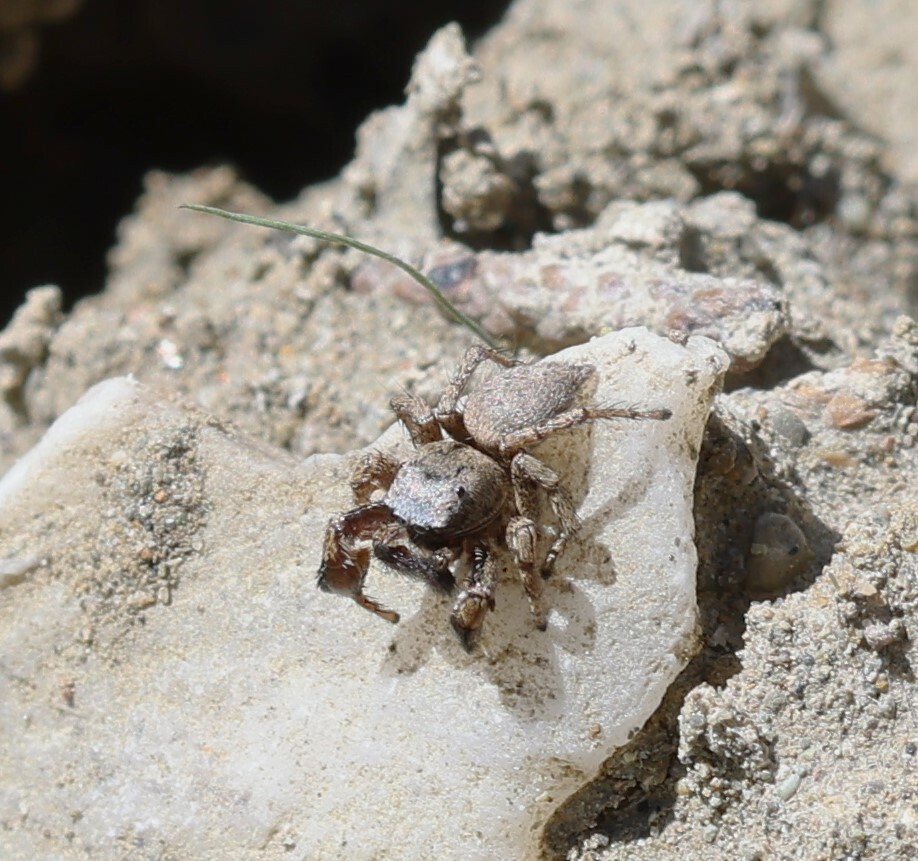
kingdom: Animalia
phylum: Arthropoda
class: Arachnida
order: Araneae
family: Salticidae
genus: Habronattus
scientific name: Habronattus oregonensis
